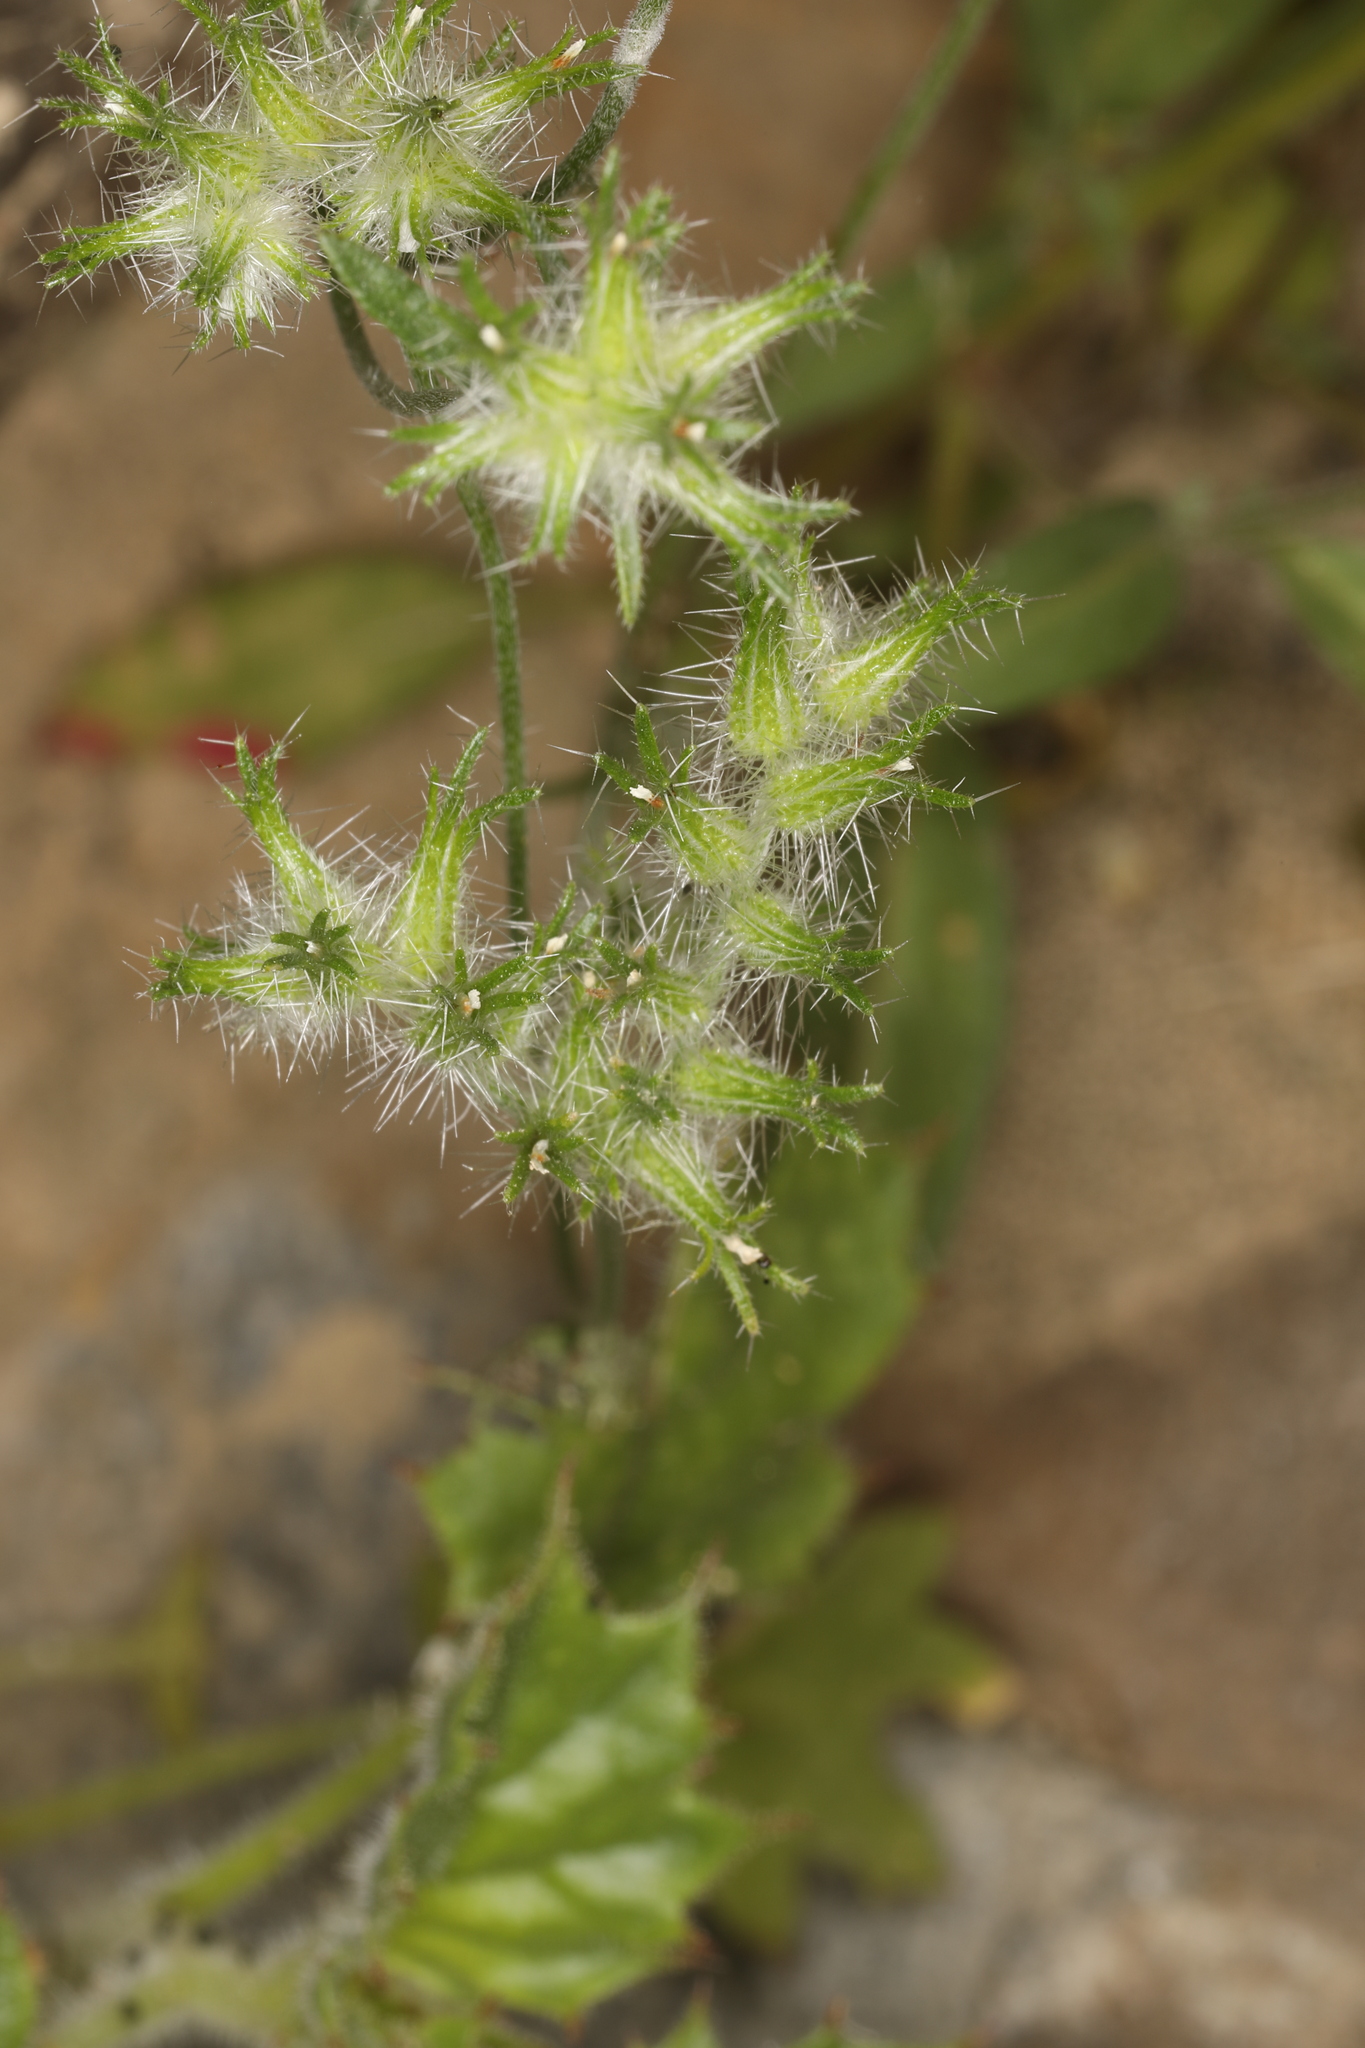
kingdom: Plantae
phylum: Tracheophyta
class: Magnoliopsida
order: Boraginales
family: Boraginaceae
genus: Cryptantha
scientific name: Cryptantha nevadensis
